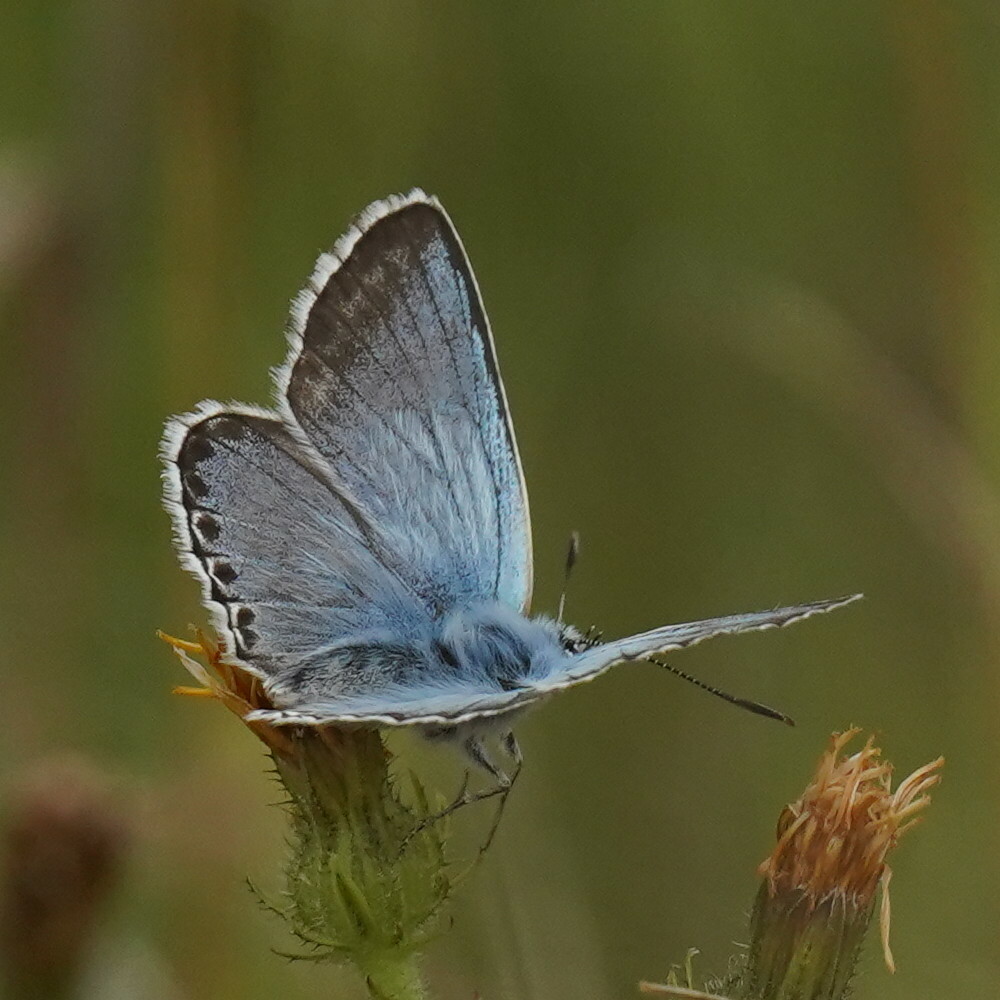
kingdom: Animalia
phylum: Arthropoda
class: Insecta
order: Lepidoptera
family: Lycaenidae
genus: Lysandra
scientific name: Lysandra coridon
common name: Chalkhill blue
